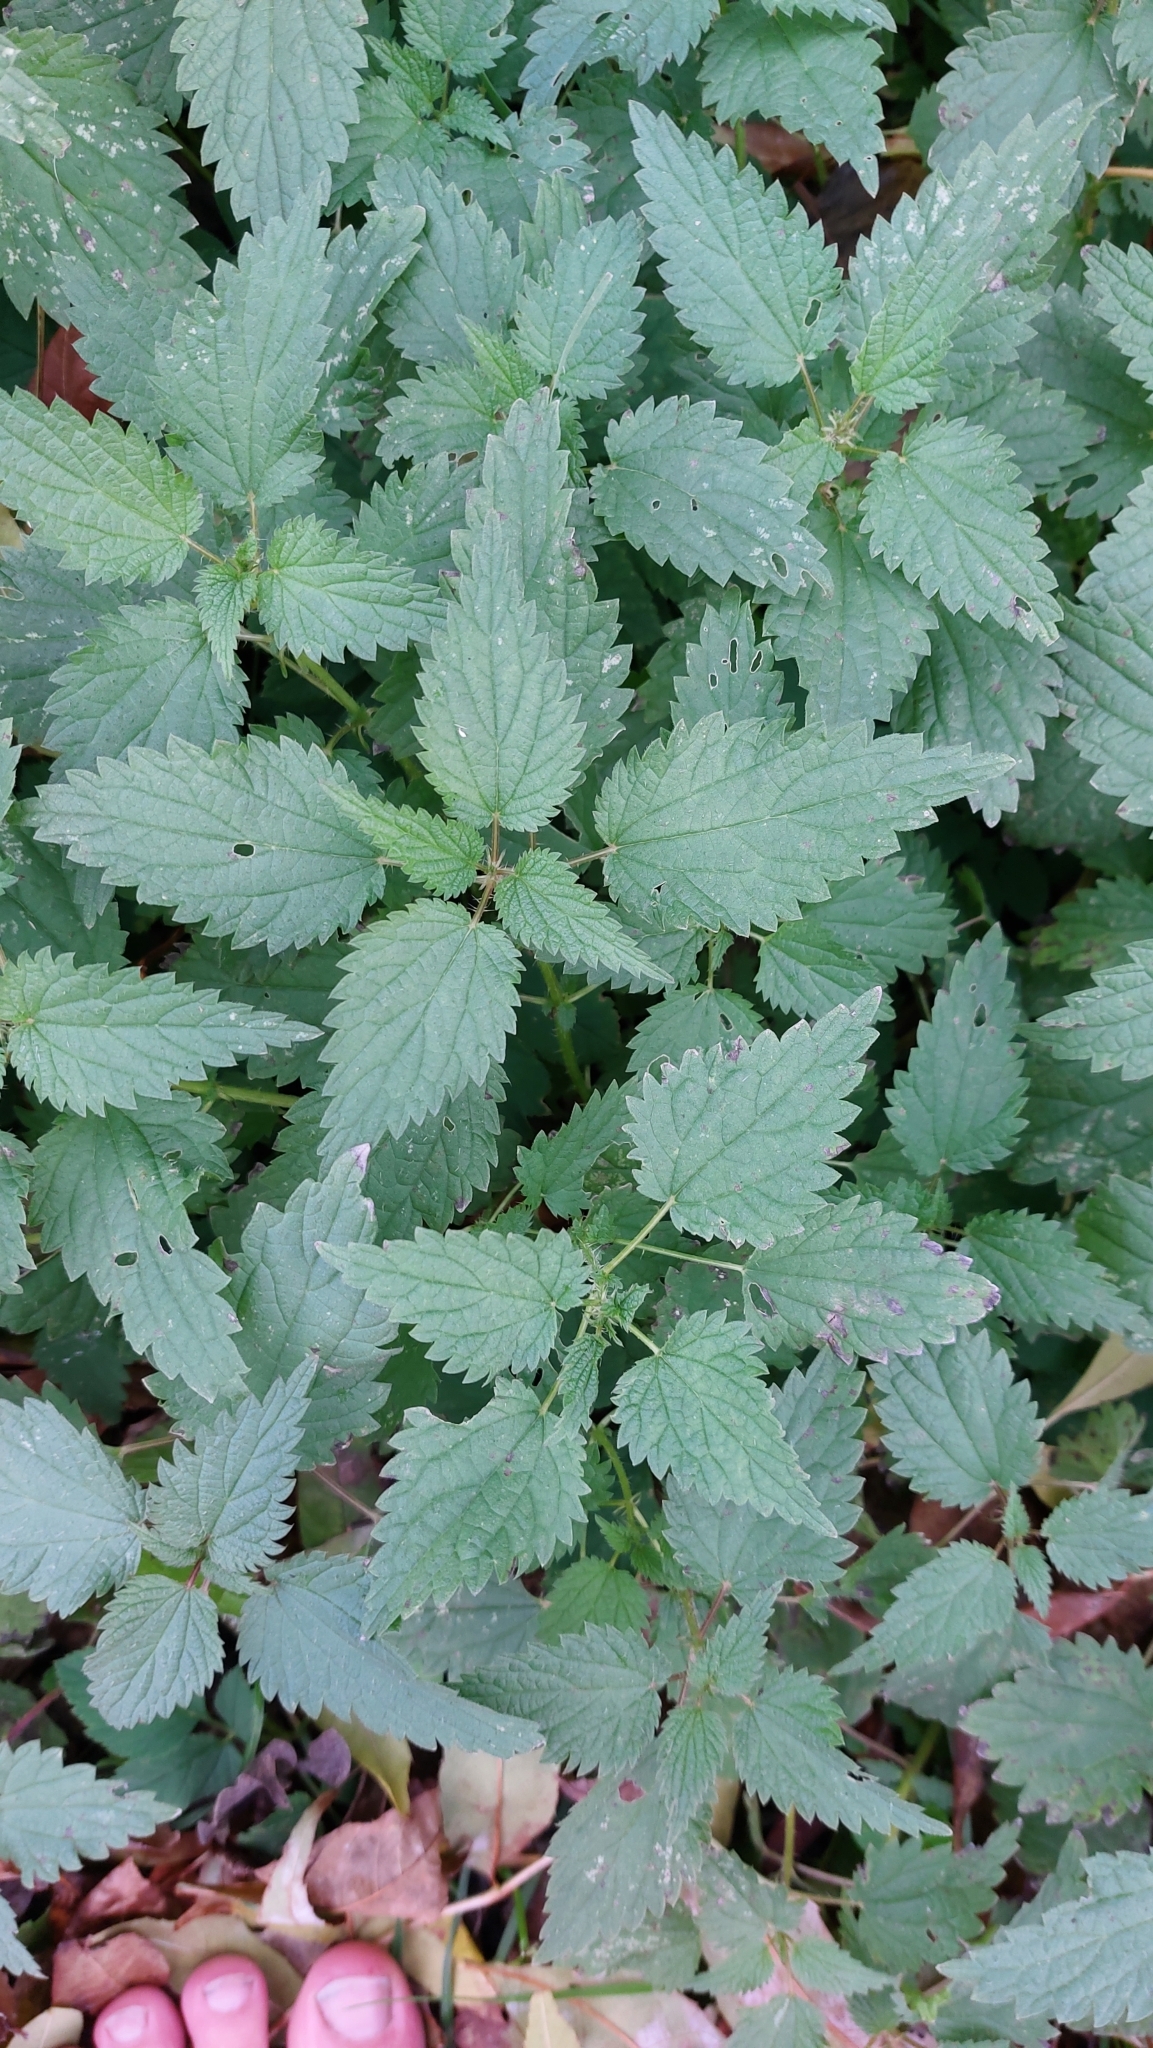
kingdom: Plantae
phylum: Tracheophyta
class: Magnoliopsida
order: Rosales
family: Urticaceae
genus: Urtica
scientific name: Urtica dioica
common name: Common nettle
